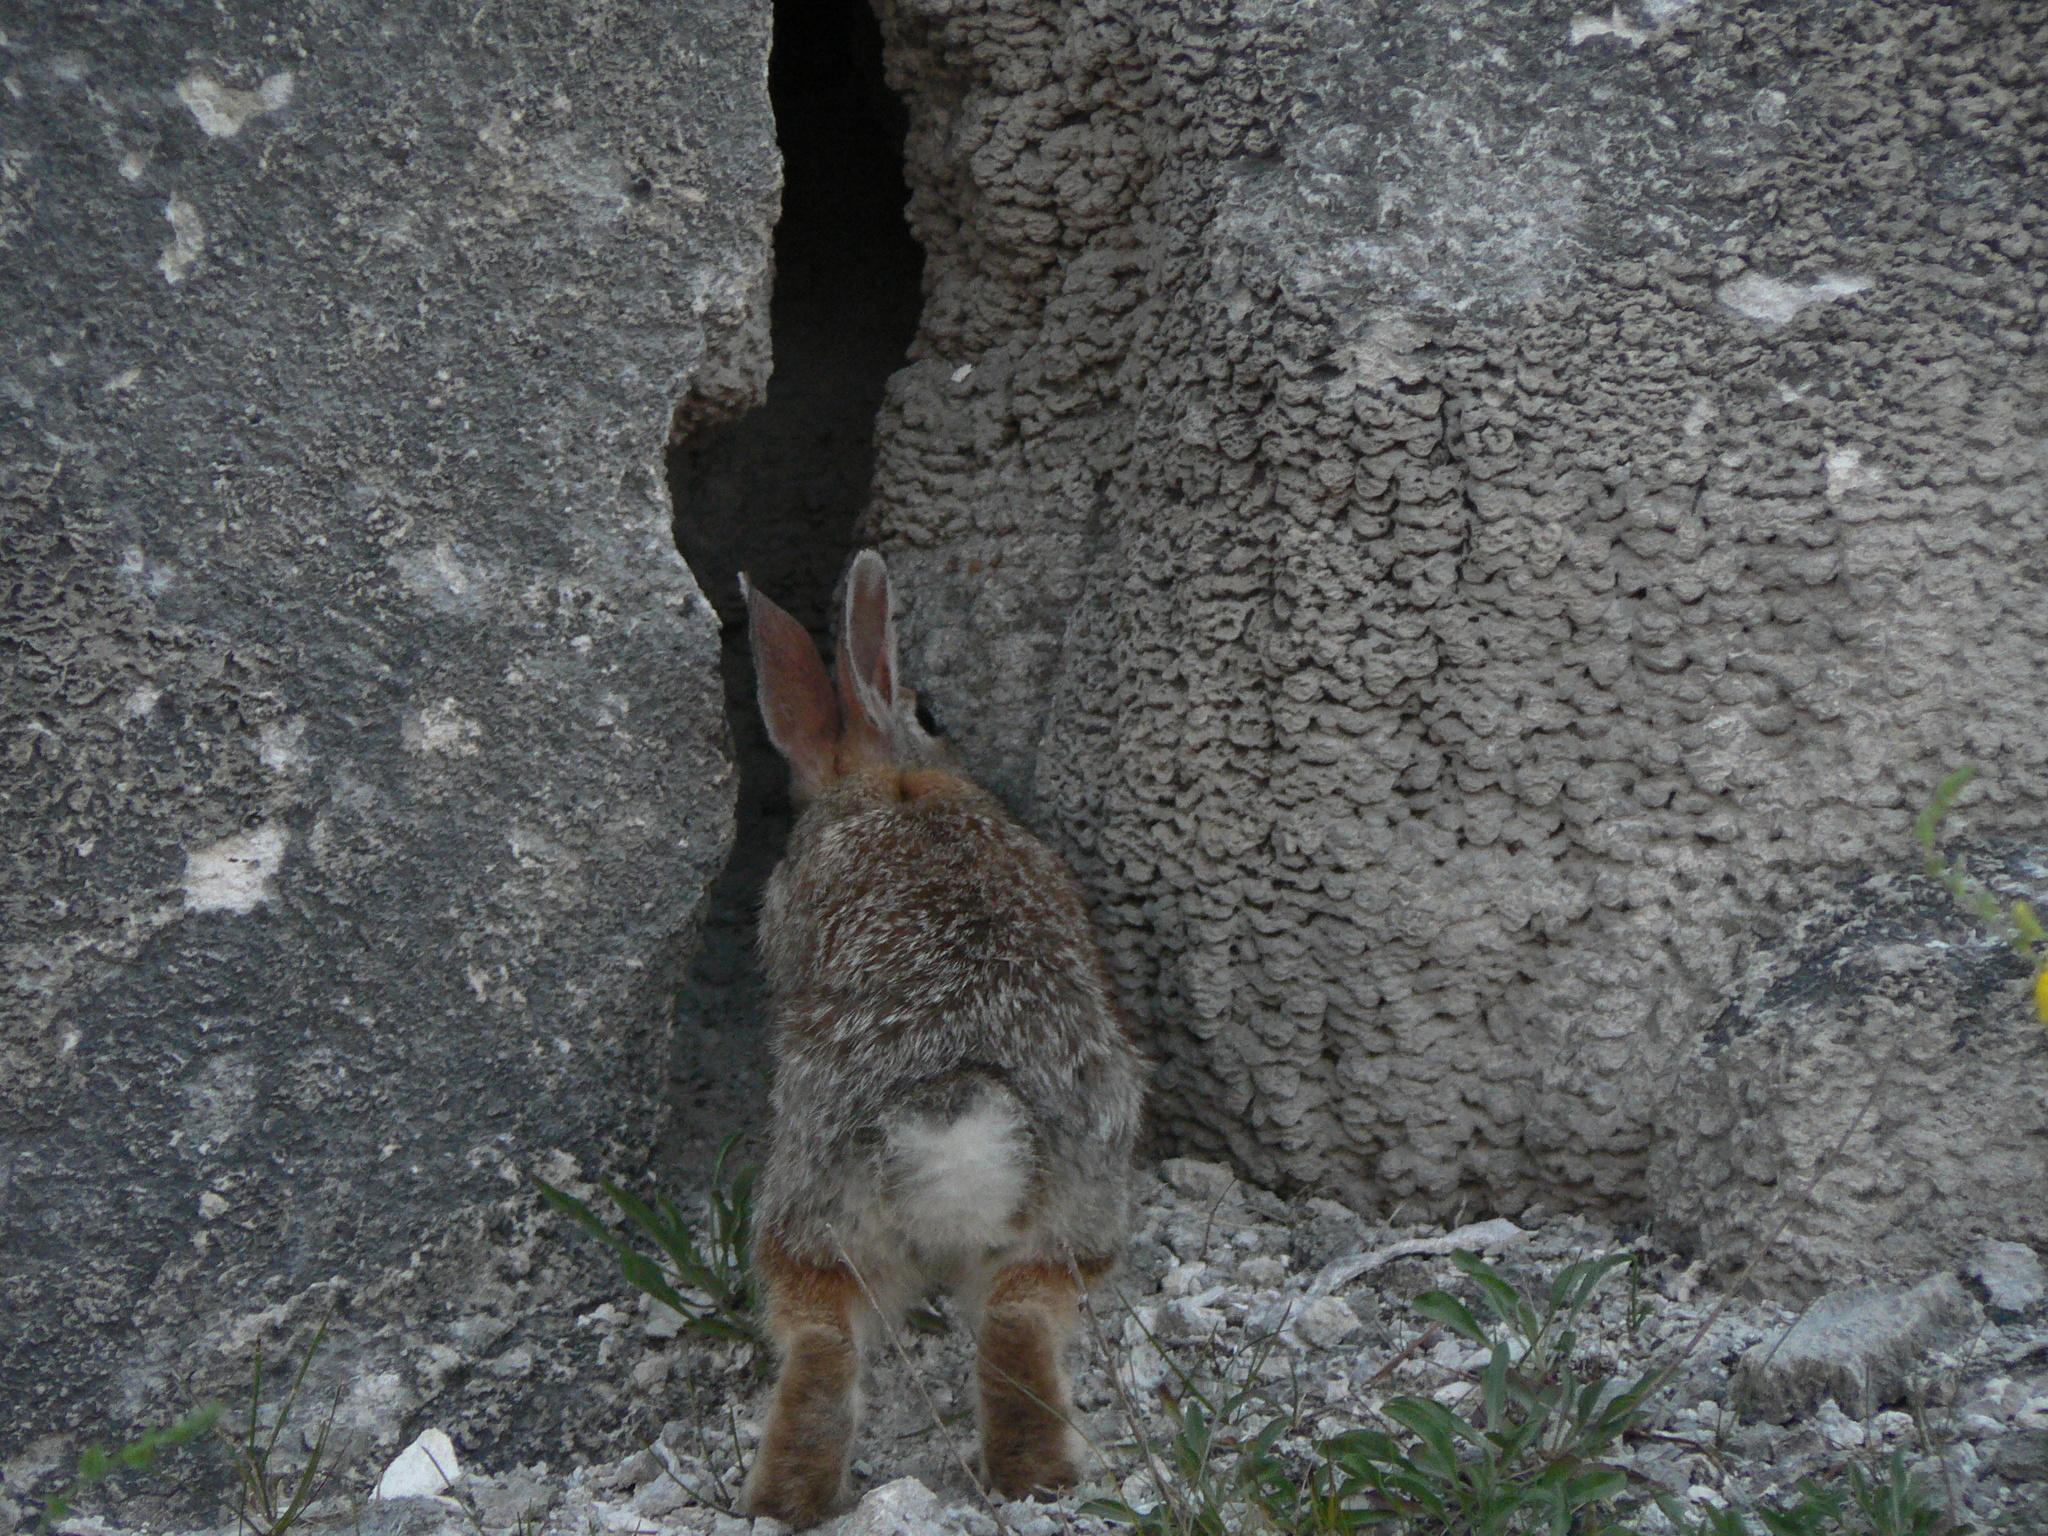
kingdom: Animalia
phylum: Chordata
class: Mammalia
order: Lagomorpha
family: Leporidae
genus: Sylvilagus
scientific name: Sylvilagus nuttallii
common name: Mountain cottontail
